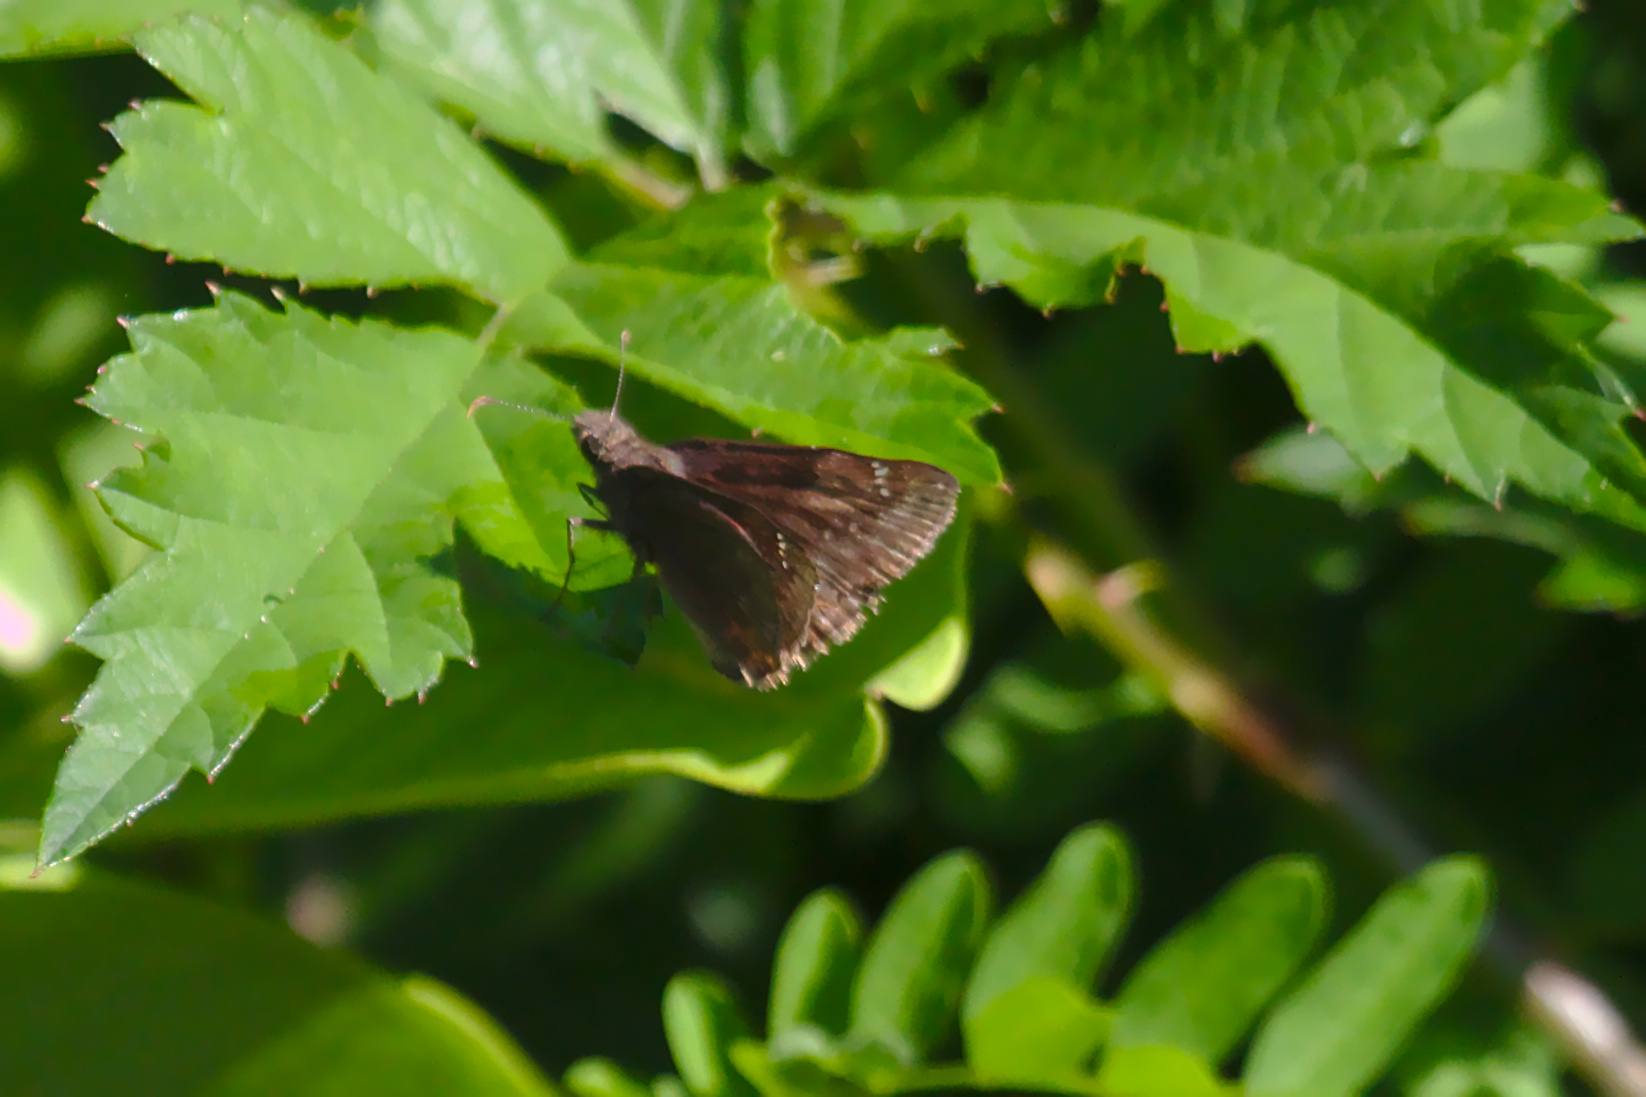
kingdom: Animalia
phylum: Arthropoda
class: Insecta
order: Lepidoptera
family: Hesperiidae
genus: Erynnis
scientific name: Erynnis baptisiae
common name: Wild indigo duskywing
